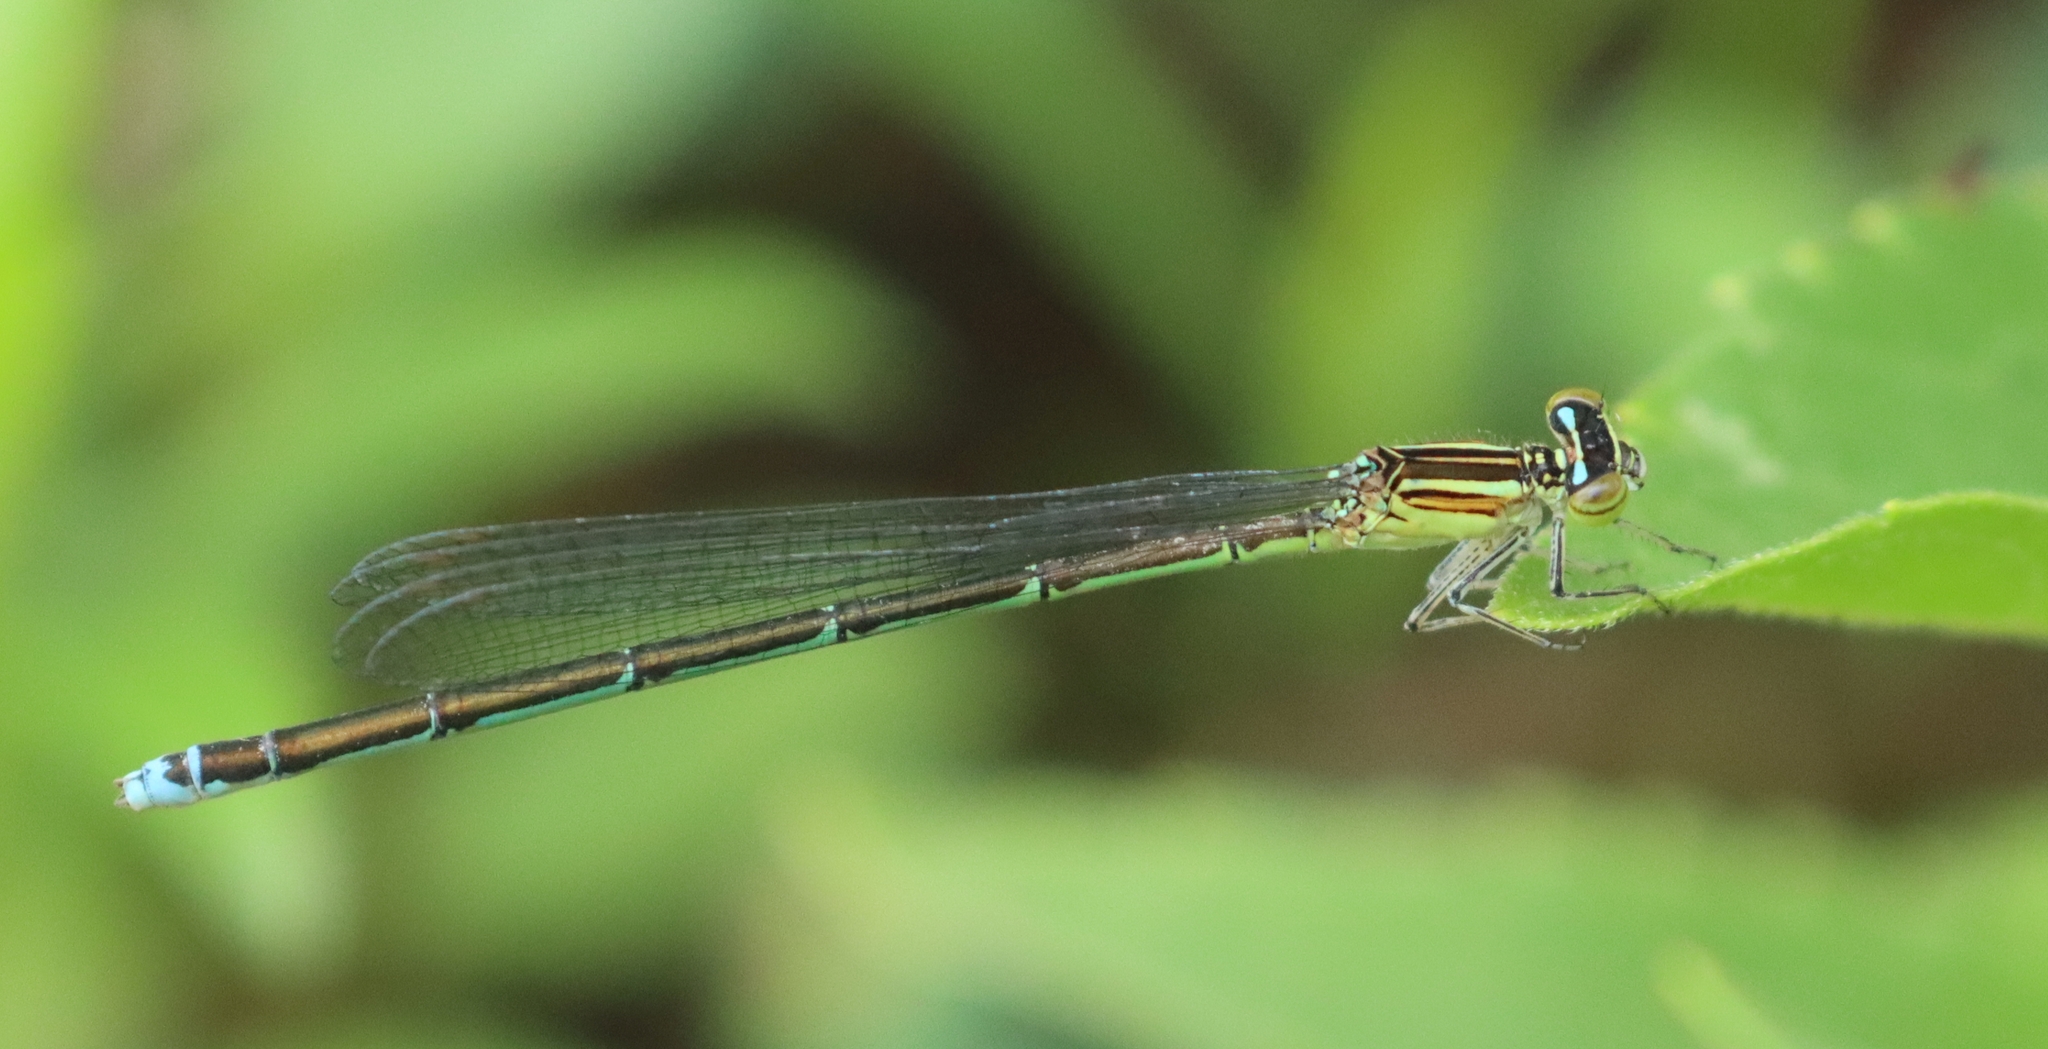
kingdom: Animalia
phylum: Arthropoda
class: Insecta
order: Odonata
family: Coenagrionidae
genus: Enallagma
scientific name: Enallagma exsulans
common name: Stream bluet
